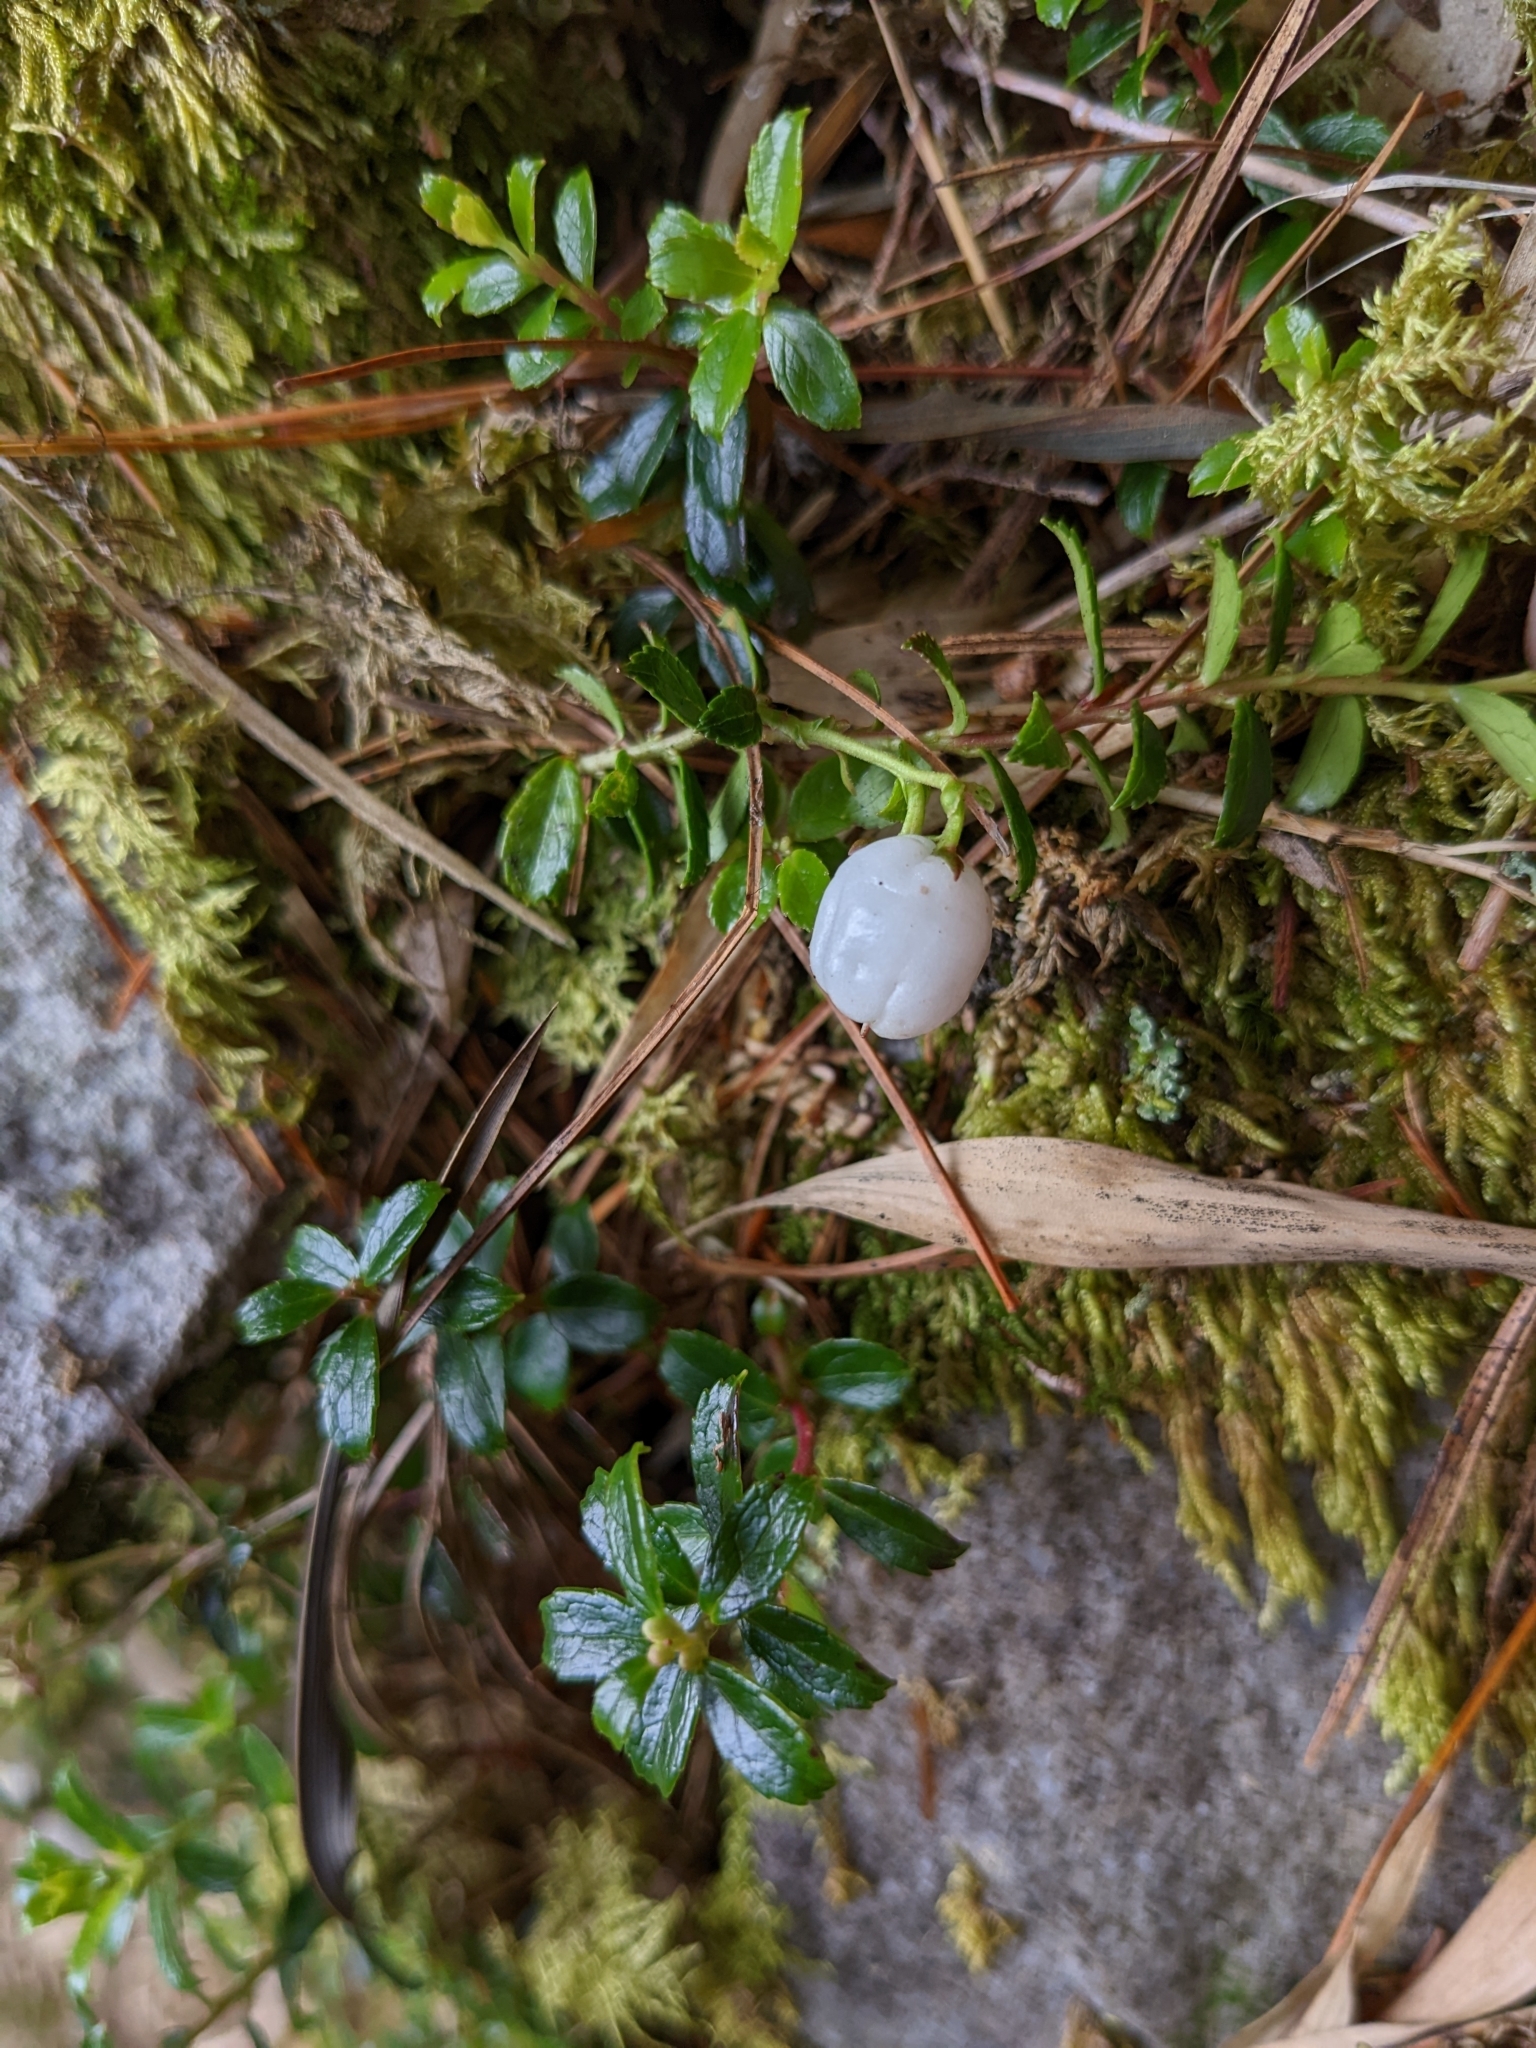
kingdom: Plantae
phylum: Tracheophyta
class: Magnoliopsida
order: Ericales
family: Ericaceae
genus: Gaultheria
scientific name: Gaultheria borneensis
